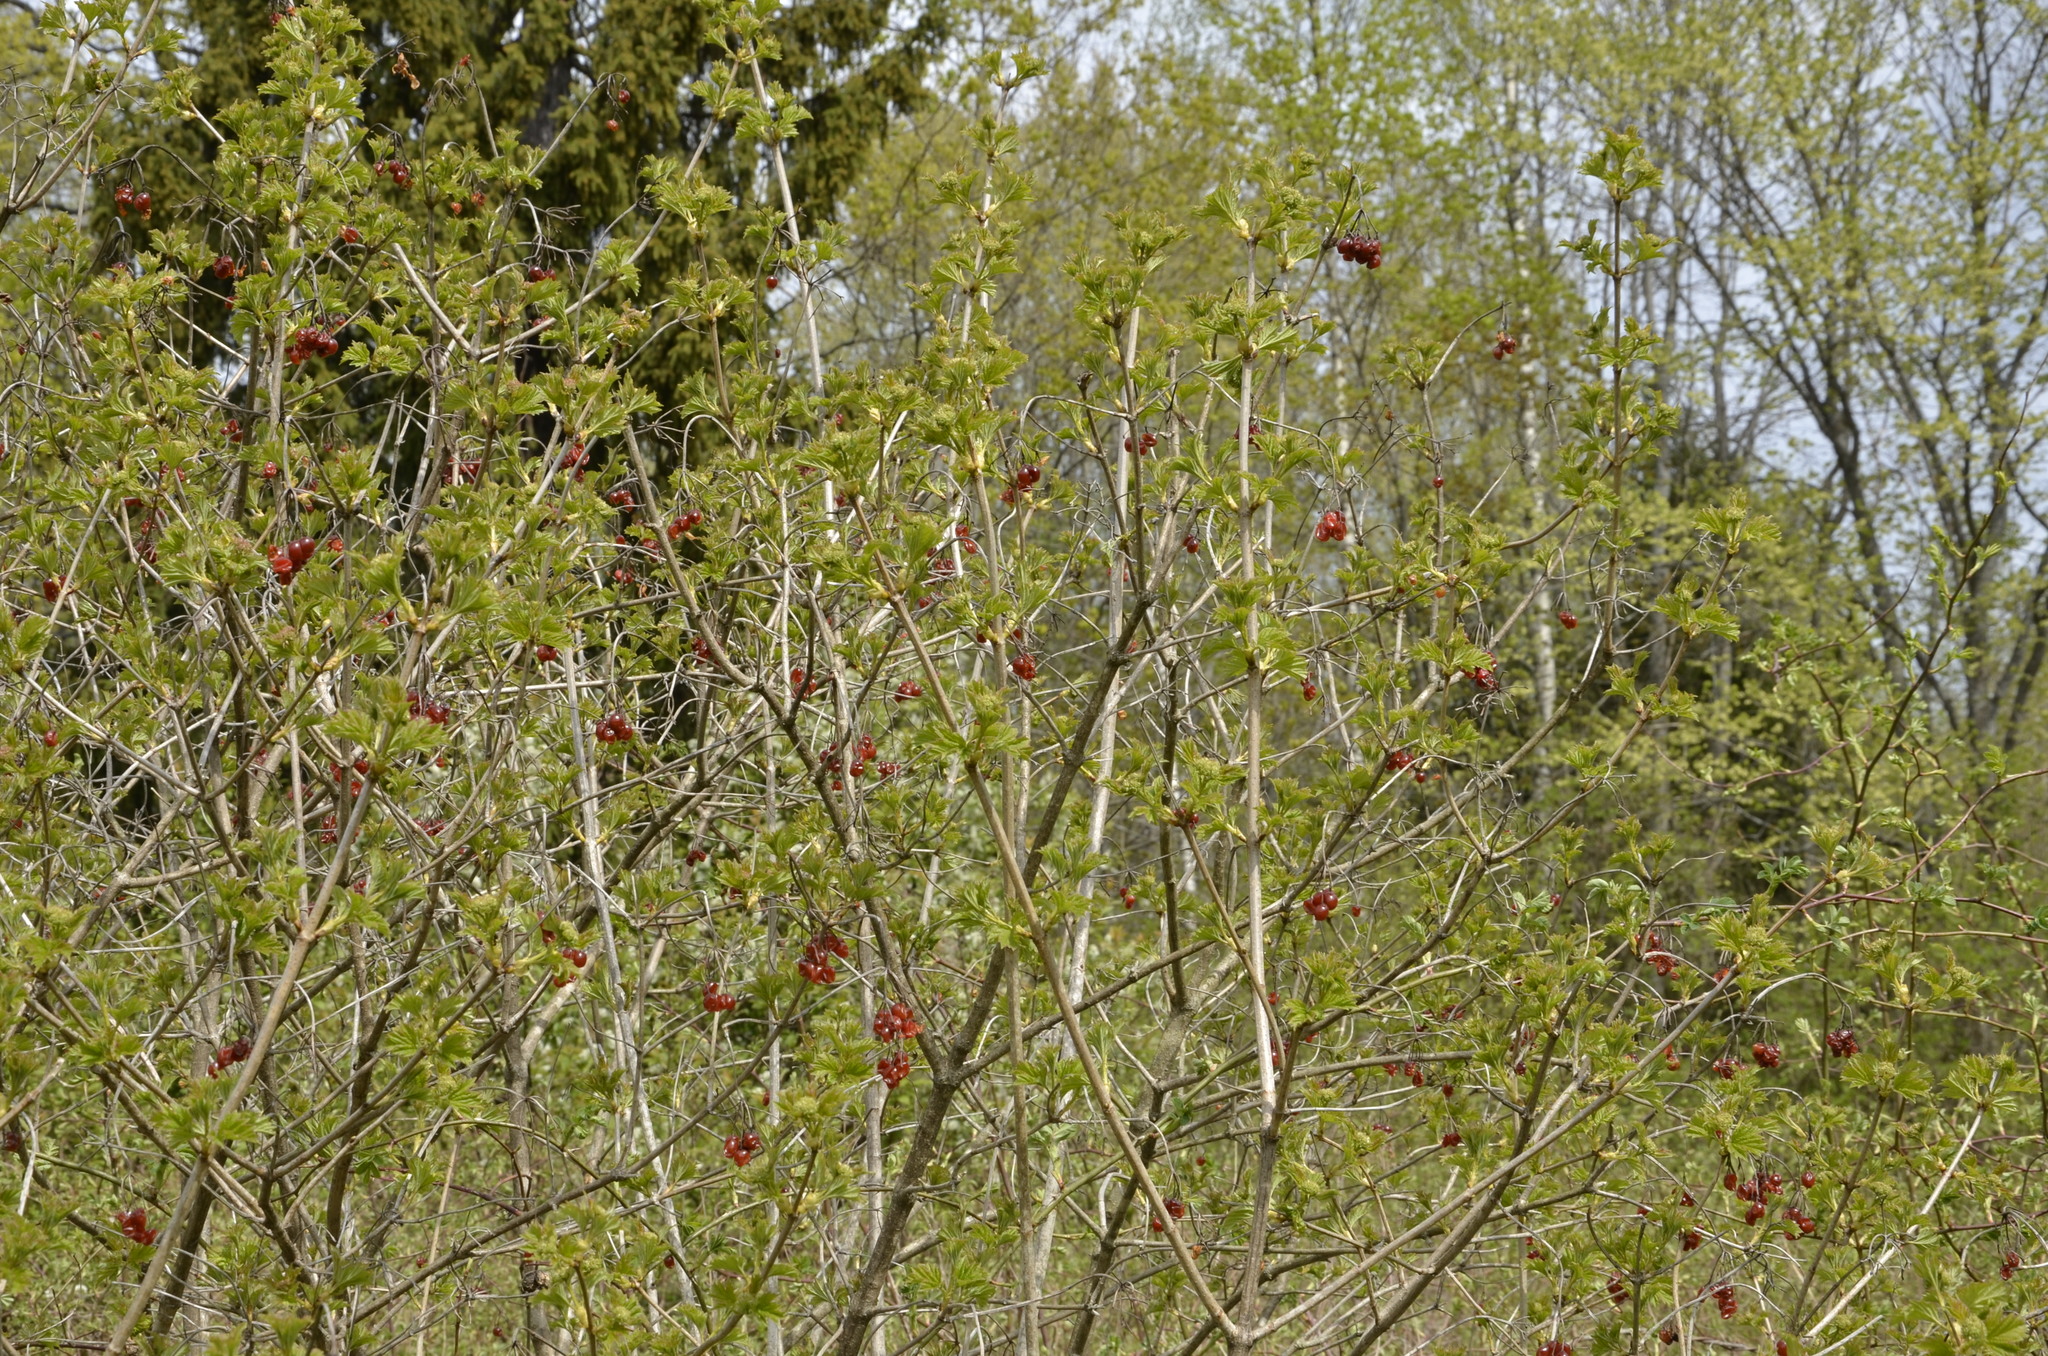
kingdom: Plantae
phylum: Tracheophyta
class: Magnoliopsida
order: Dipsacales
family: Viburnaceae
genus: Viburnum
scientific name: Viburnum opulus
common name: Guelder-rose
